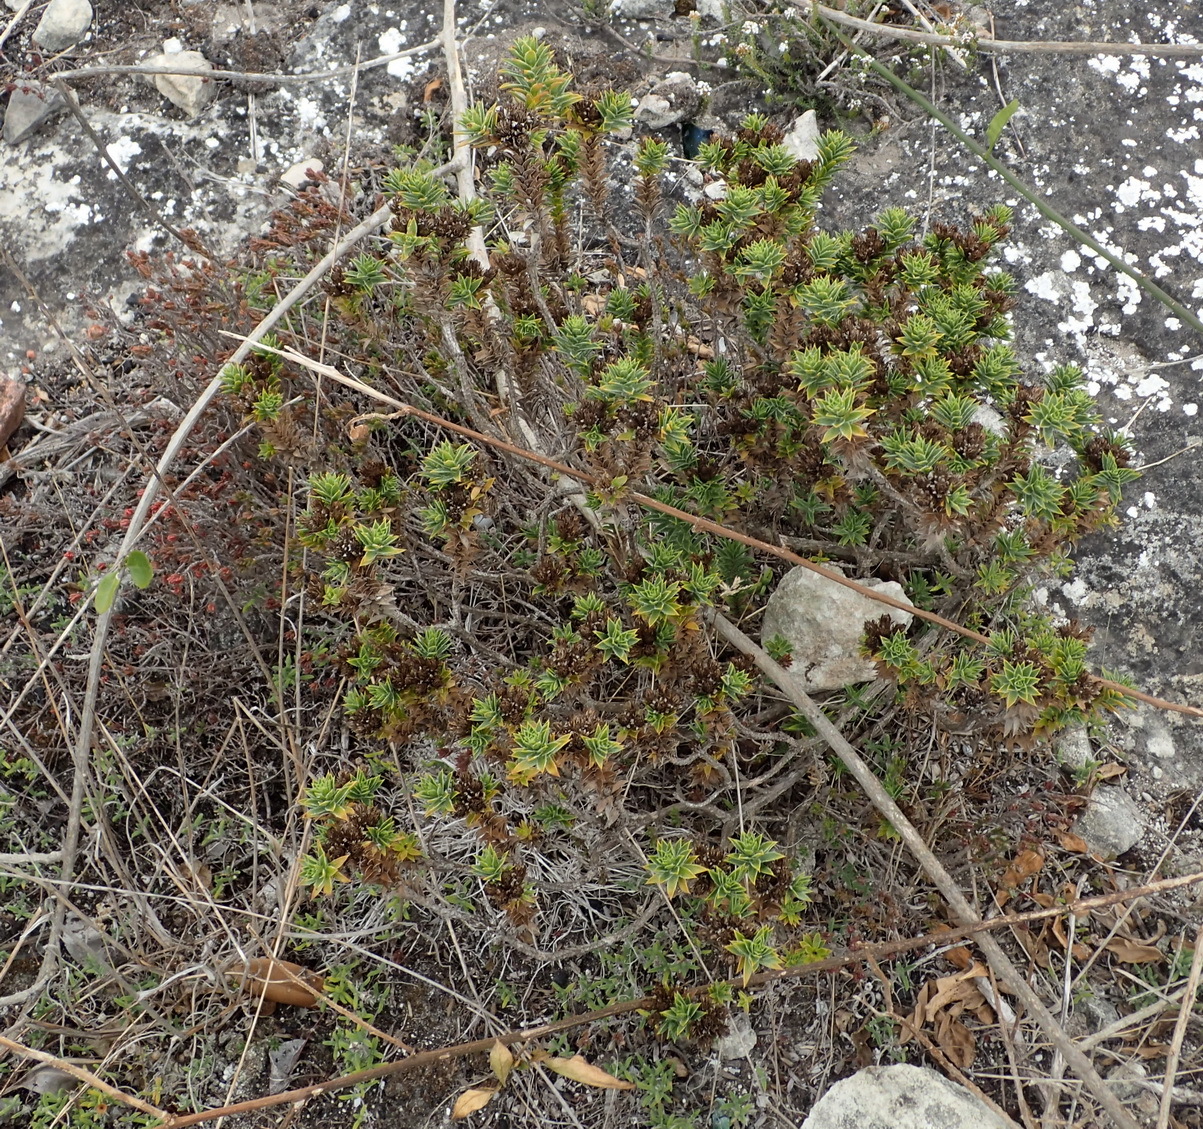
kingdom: Plantae
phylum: Tracheophyta
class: Magnoliopsida
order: Asterales
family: Asteraceae
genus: Oedera
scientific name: Oedera steyniae
